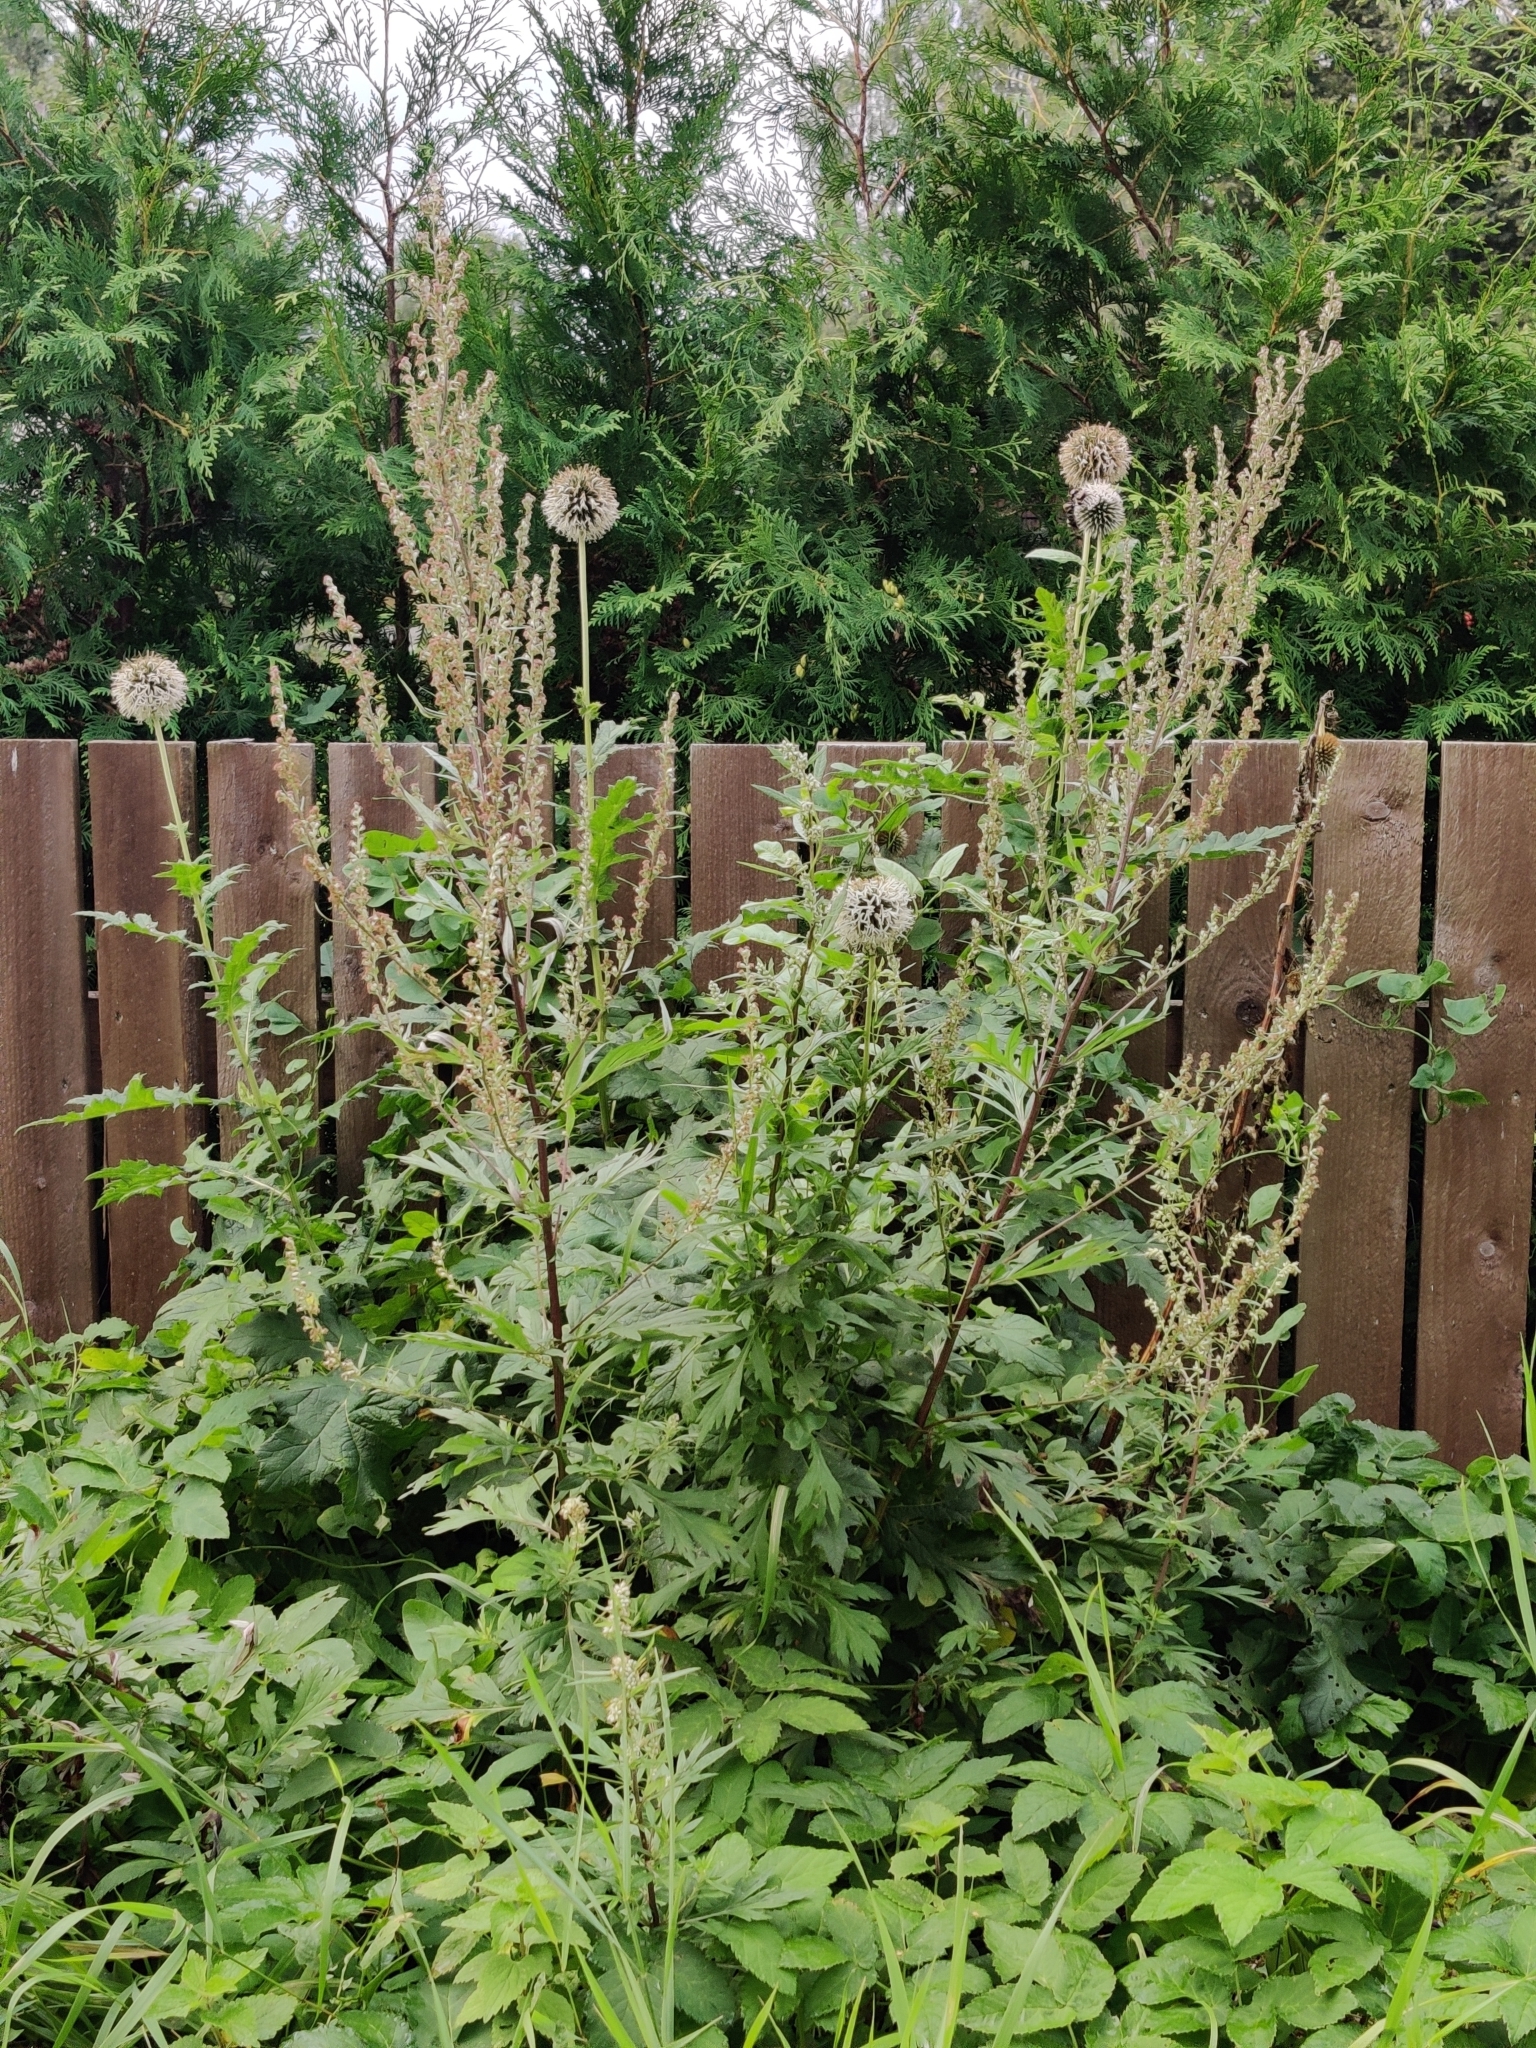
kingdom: Plantae
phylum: Tracheophyta
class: Magnoliopsida
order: Asterales
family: Asteraceae
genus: Echinops
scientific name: Echinops sphaerocephalus
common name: Glandular globe-thistle
